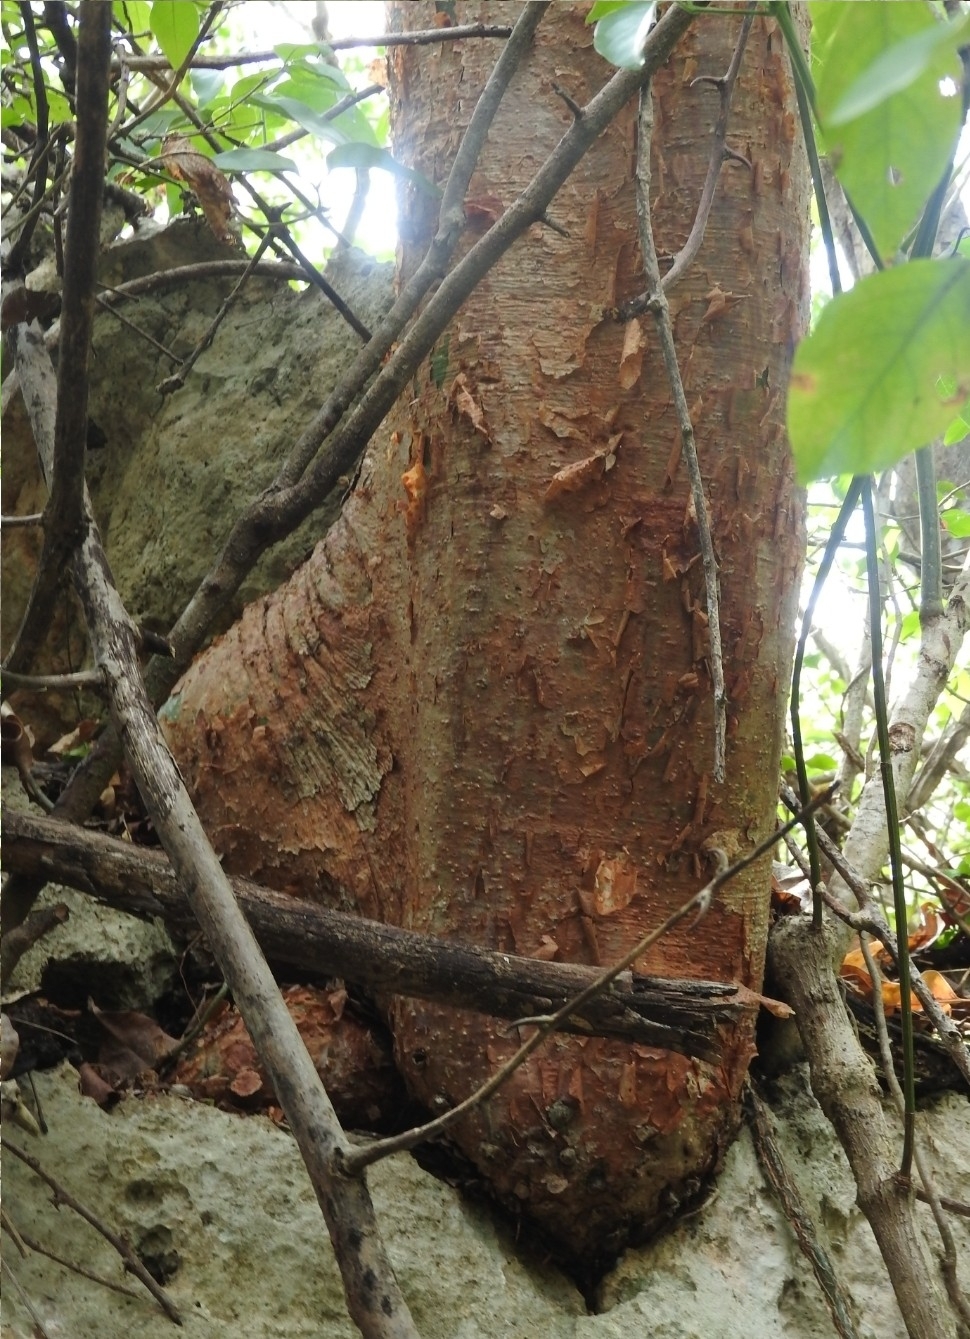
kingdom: Plantae
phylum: Tracheophyta
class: Magnoliopsida
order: Sapindales
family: Burseraceae
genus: Bursera
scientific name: Bursera simaruba
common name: Turpentine tree
